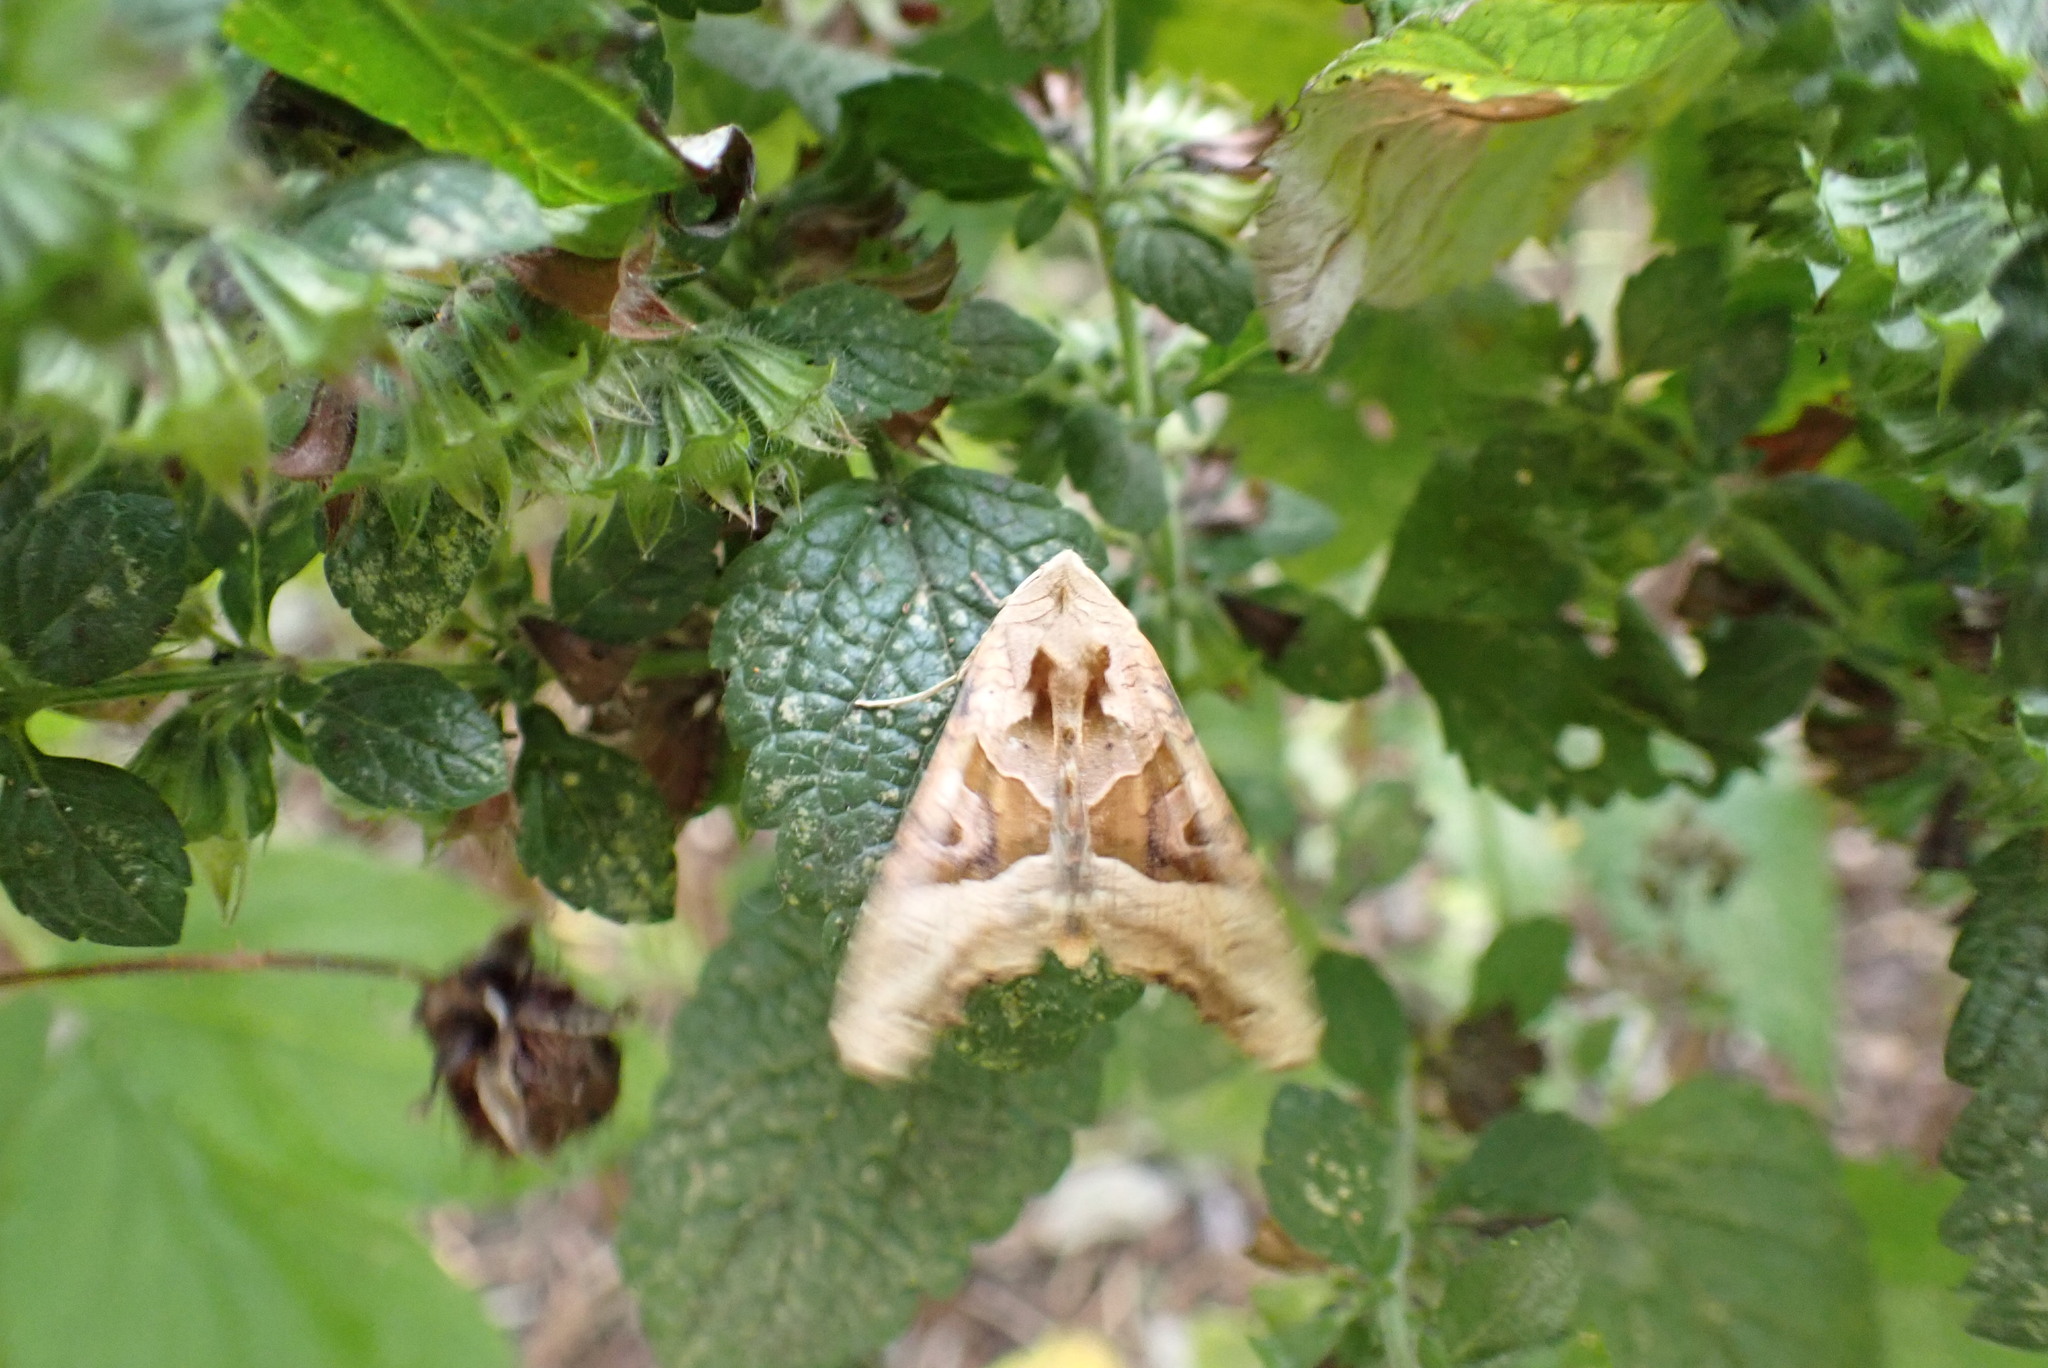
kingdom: Animalia
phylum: Arthropoda
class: Insecta
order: Lepidoptera
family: Noctuidae
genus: Phlogophora
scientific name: Phlogophora meticulosa
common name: Angle shades
